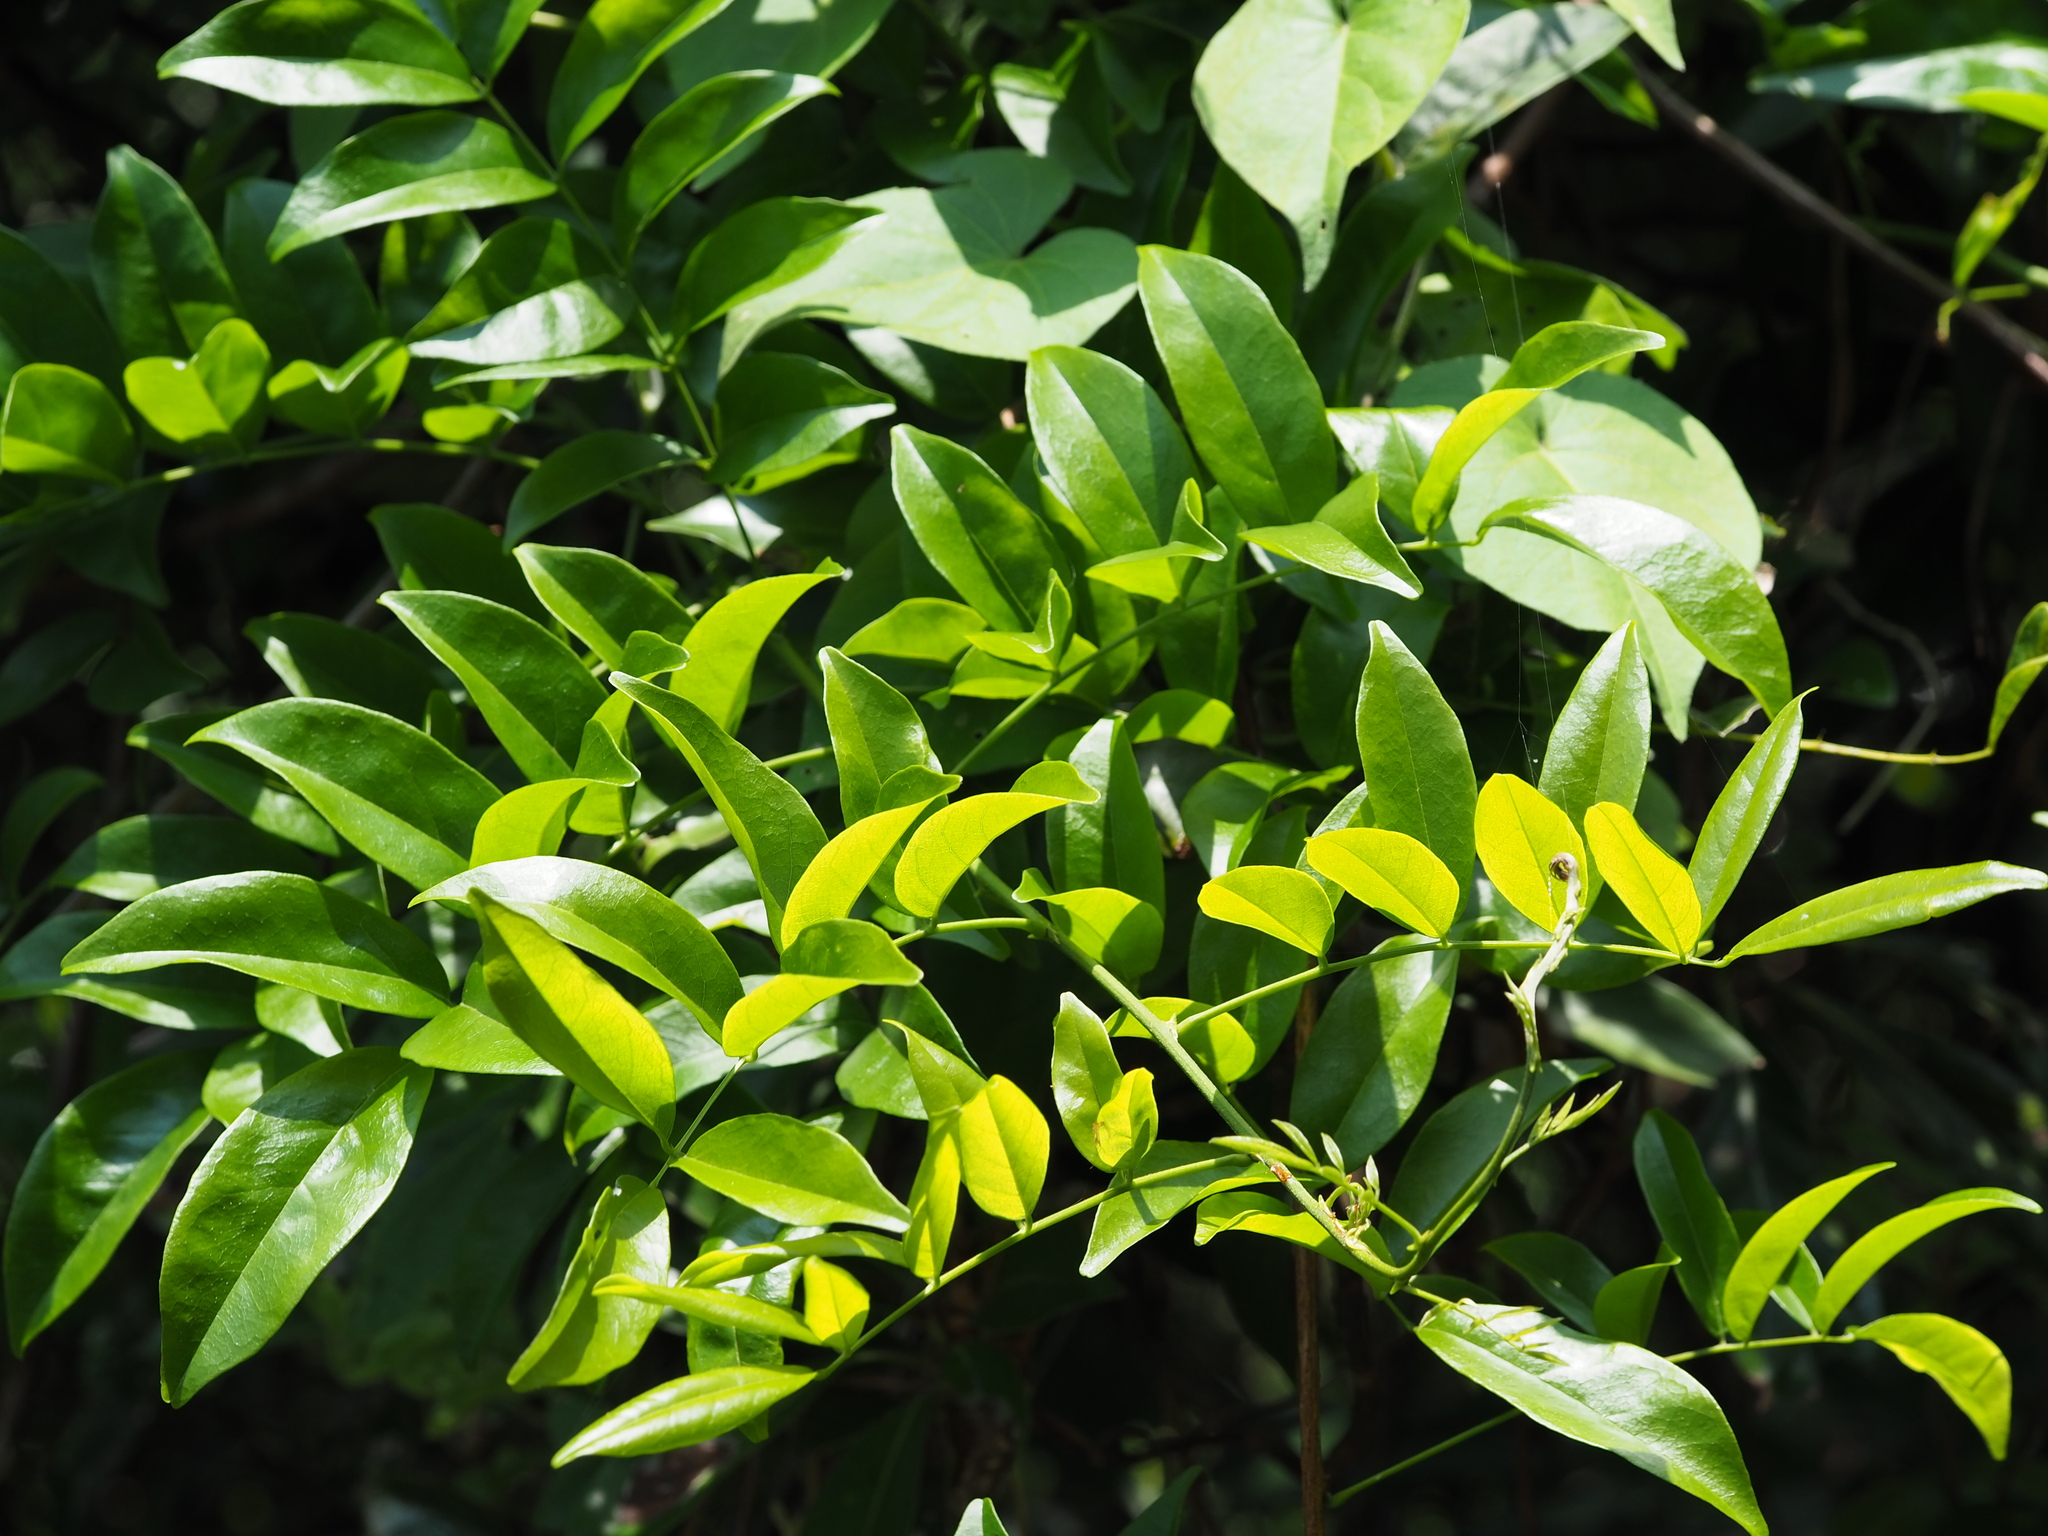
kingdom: Plantae
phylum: Tracheophyta
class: Magnoliopsida
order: Fabales
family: Fabaceae
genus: Wisteriopsis
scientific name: Wisteriopsis reticulata
